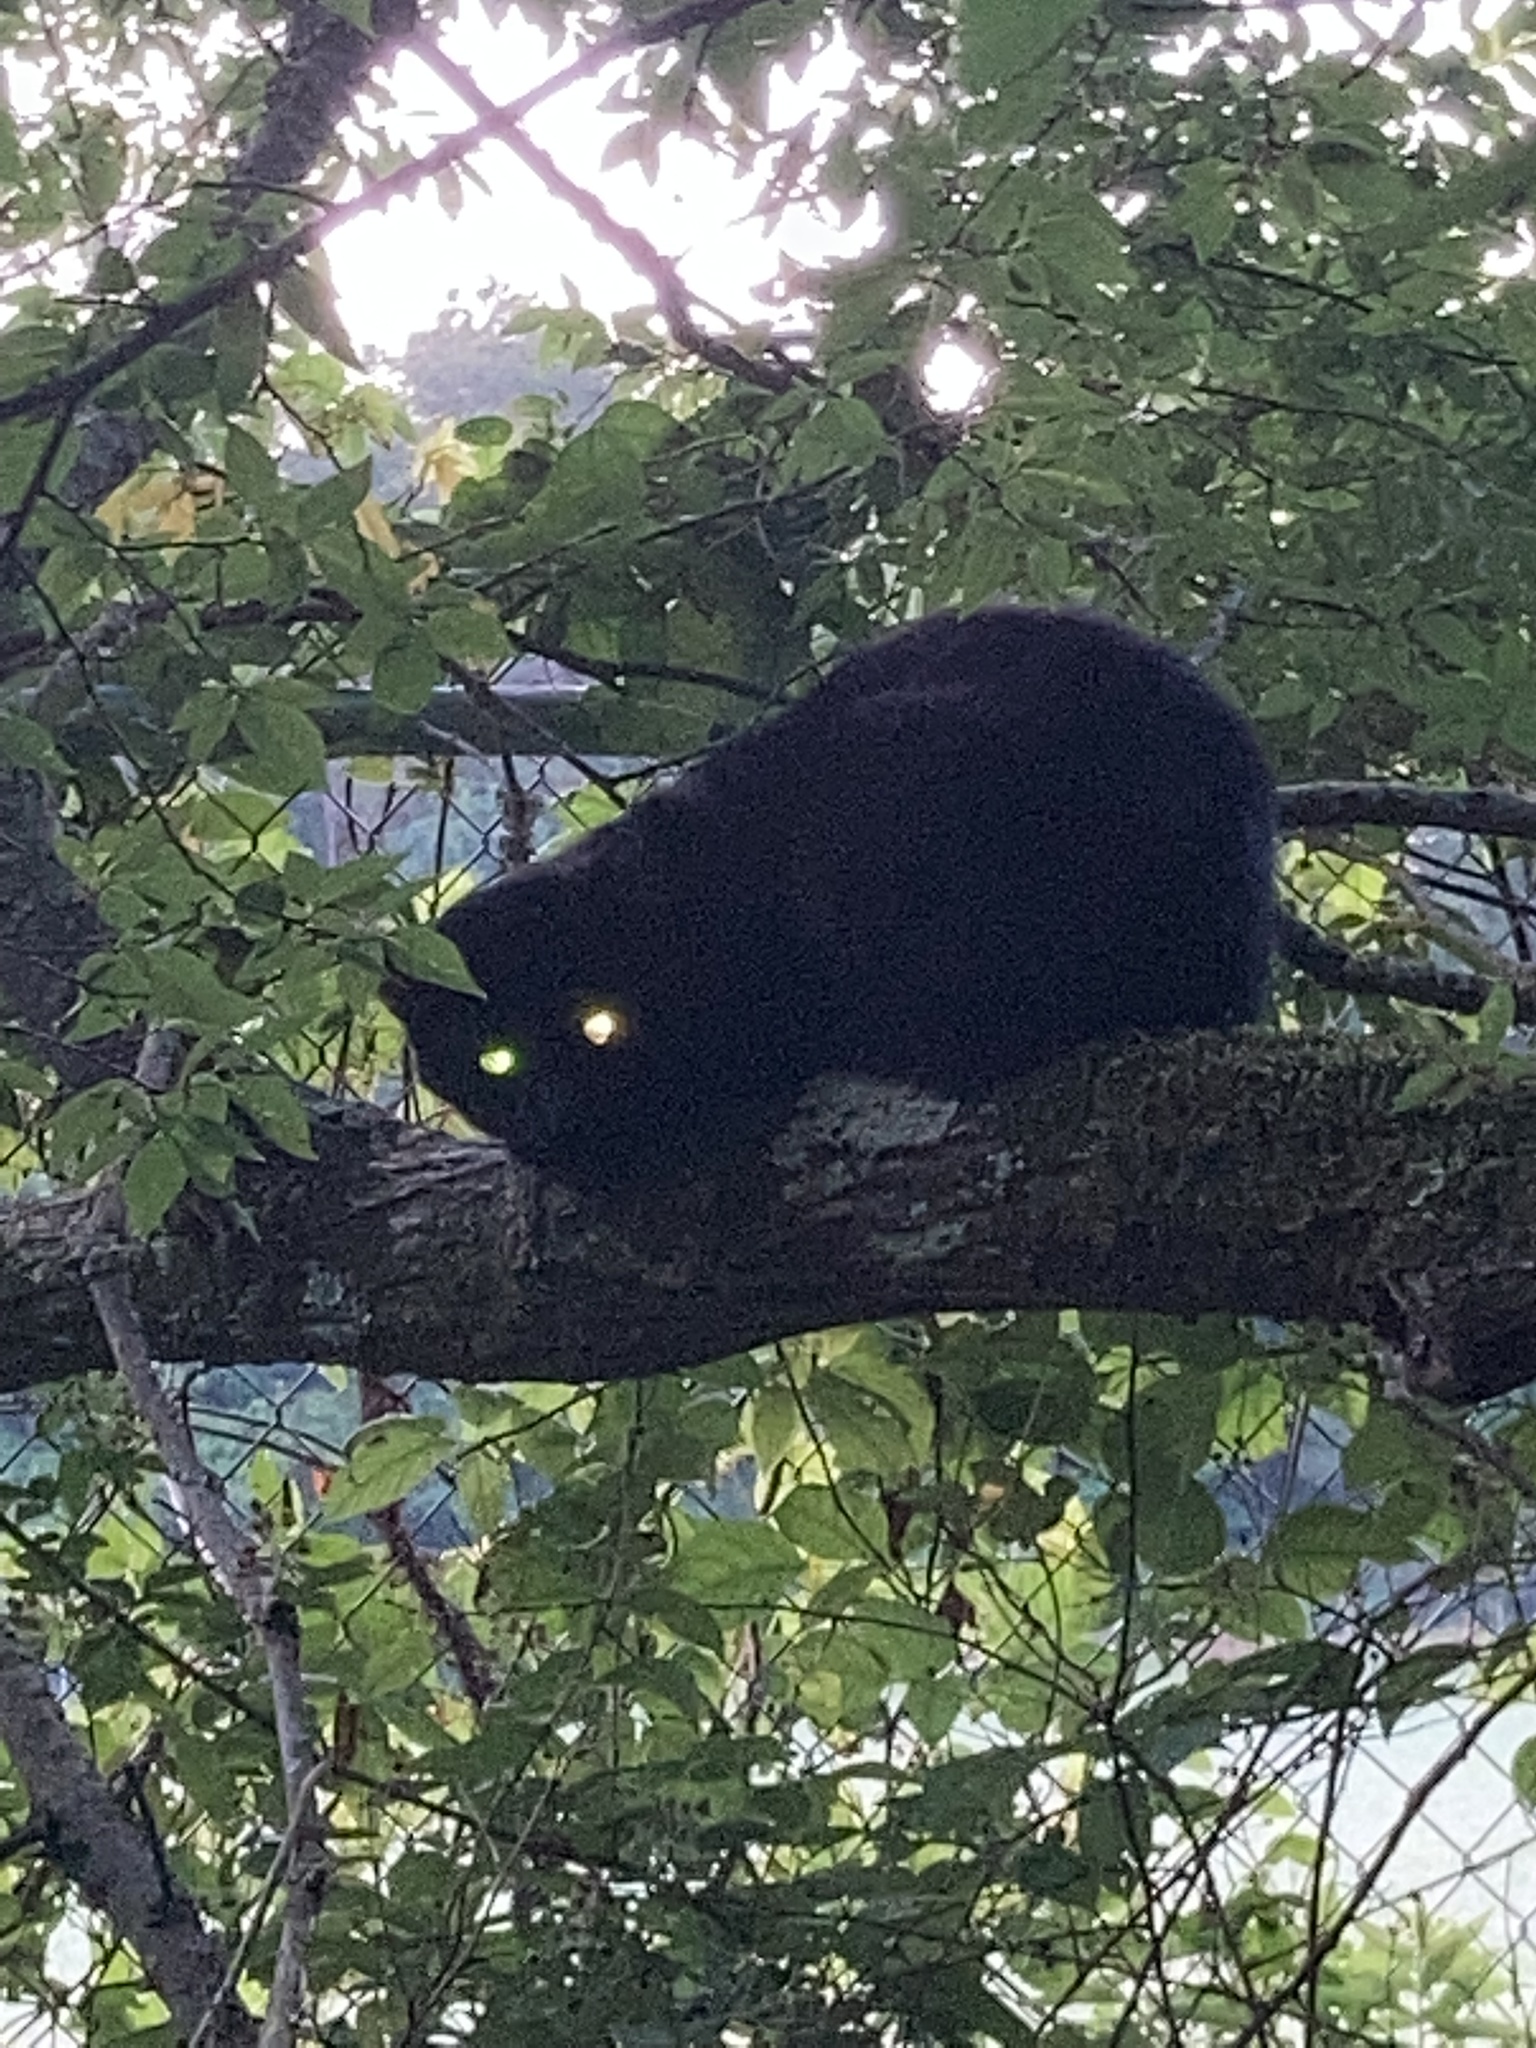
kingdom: Animalia
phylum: Chordata
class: Mammalia
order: Carnivora
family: Felidae
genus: Felis
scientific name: Felis catus
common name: Domestic cat
